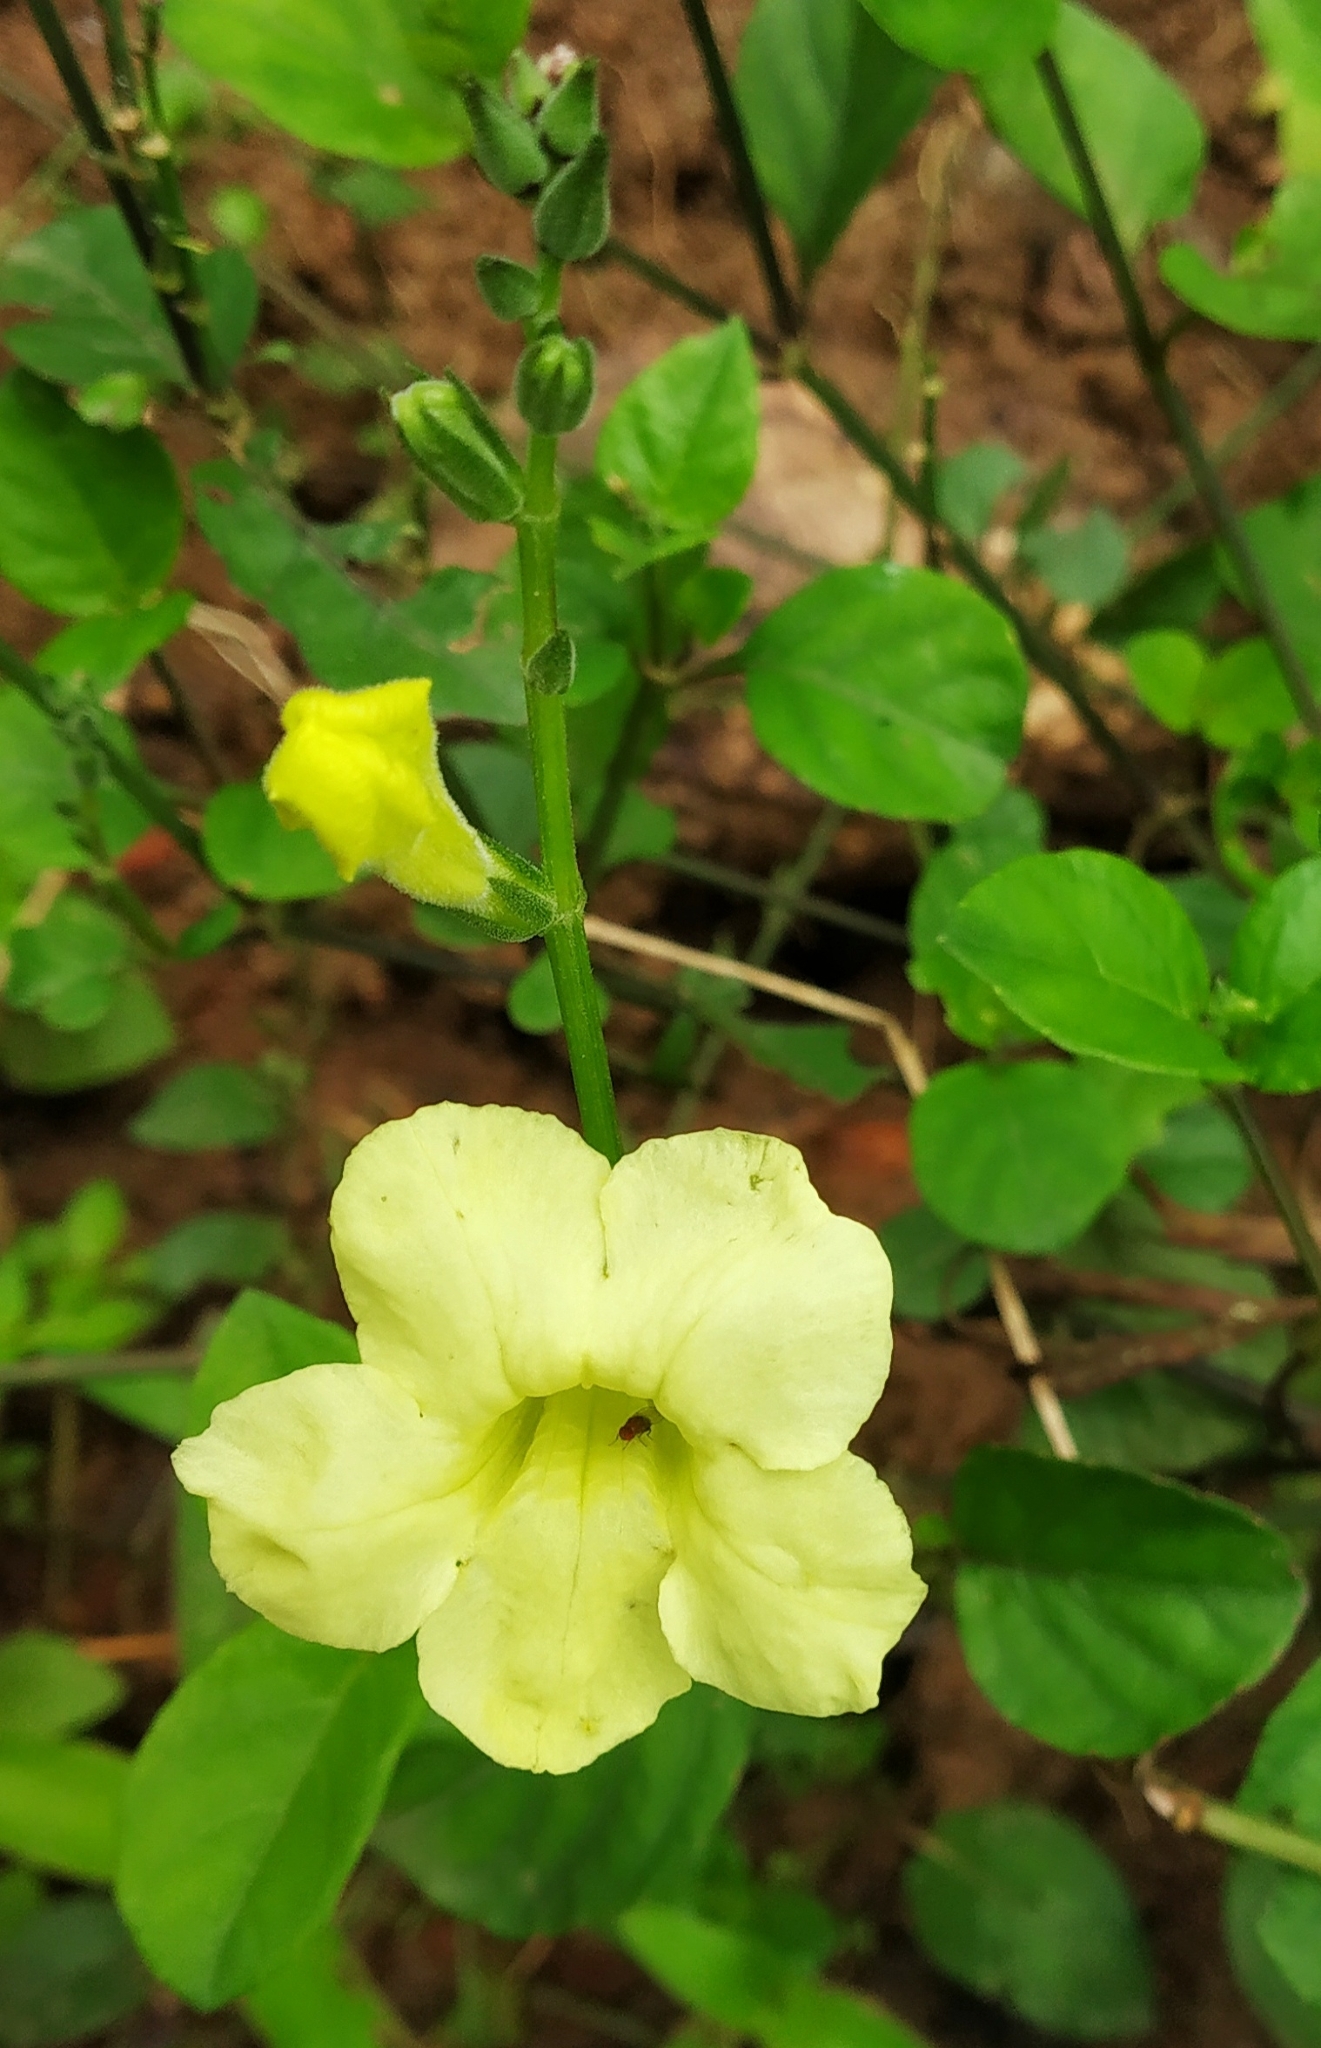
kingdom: Plantae
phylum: Tracheophyta
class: Magnoliopsida
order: Lamiales
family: Acanthaceae
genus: Asystasia
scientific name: Asystasia gangetica
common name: Chinese violet
